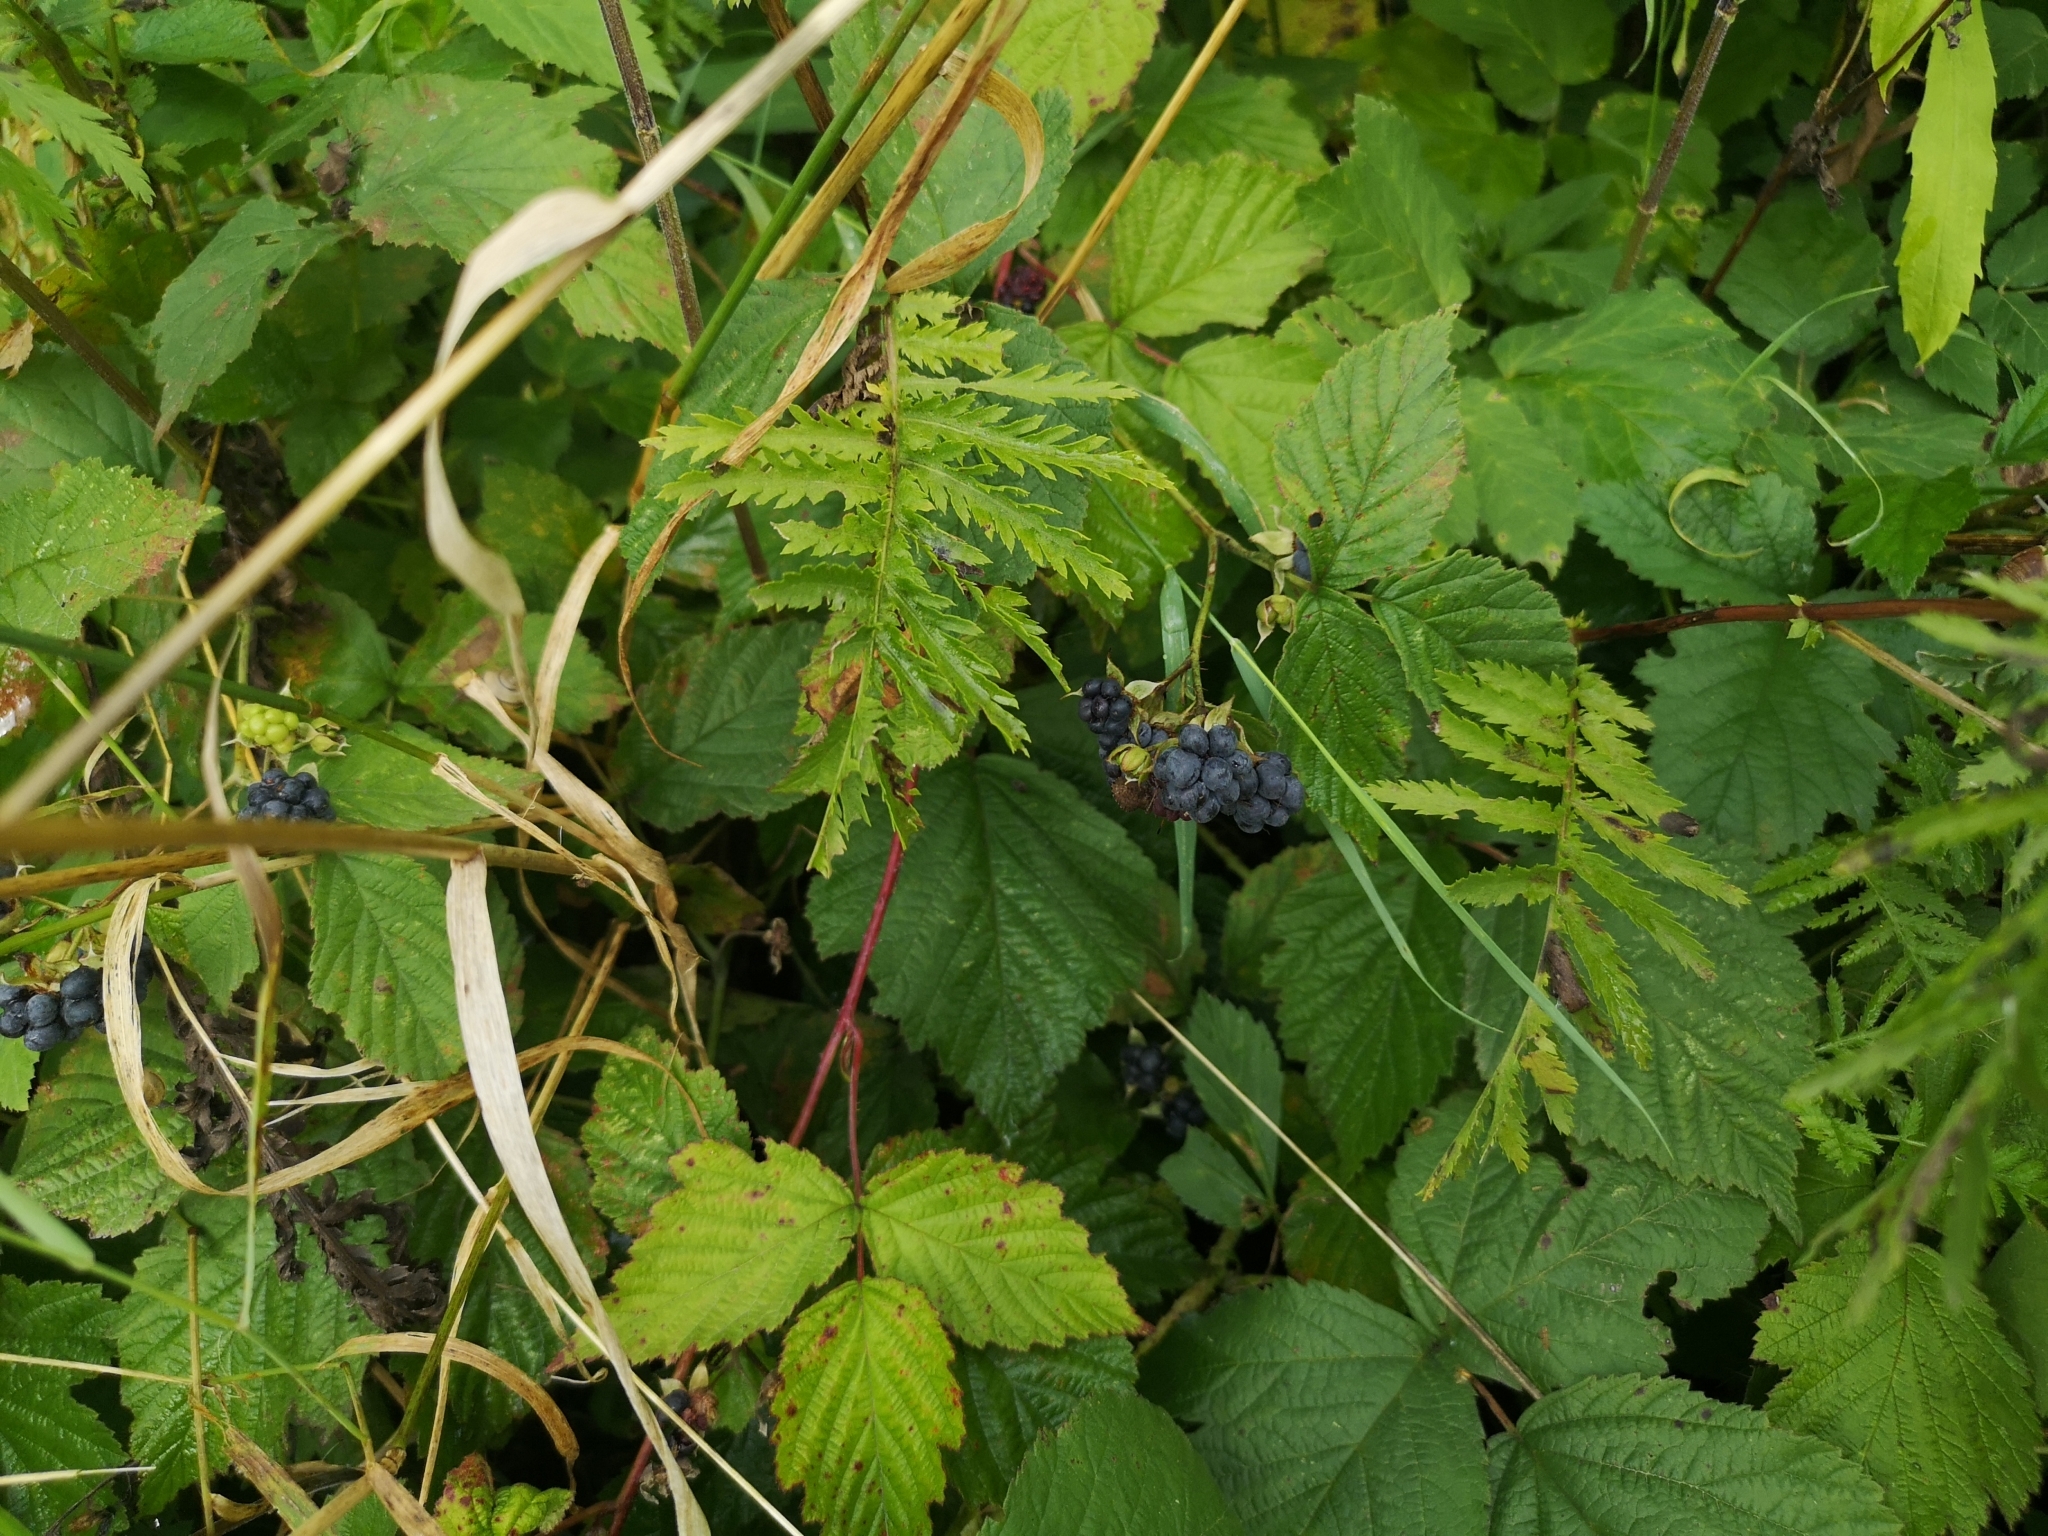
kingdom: Plantae
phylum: Tracheophyta
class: Magnoliopsida
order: Rosales
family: Rosaceae
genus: Rubus
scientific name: Rubus caesius
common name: Dewberry
